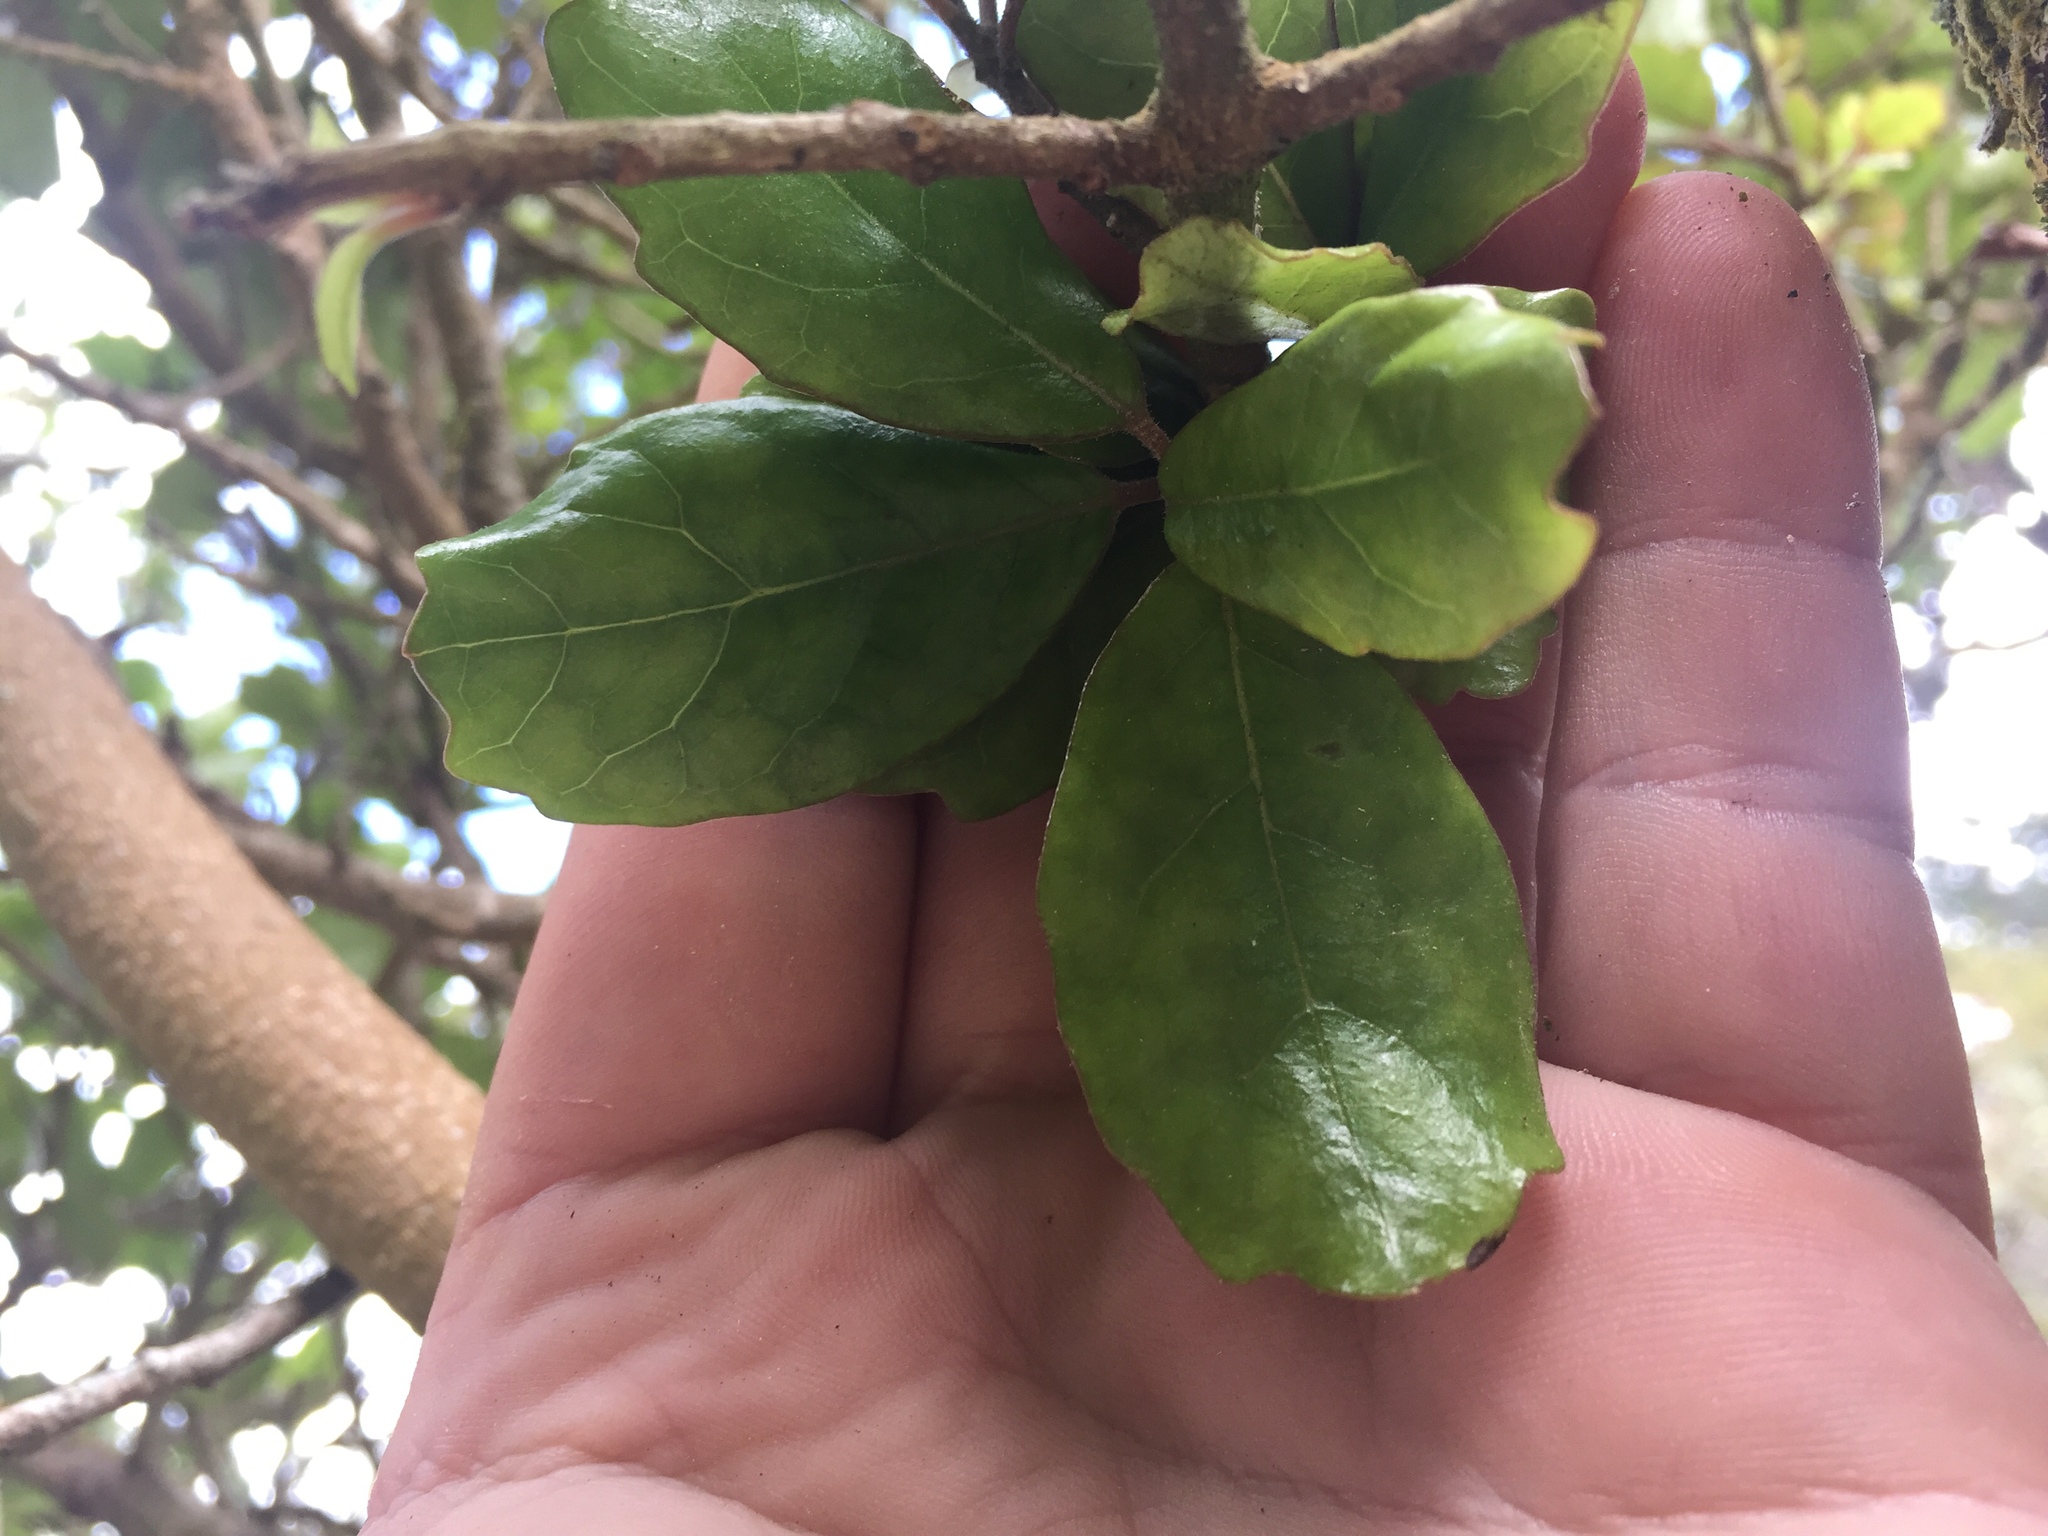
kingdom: Plantae
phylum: Tracheophyta
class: Magnoliopsida
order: Apiales
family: Pennantiaceae
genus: Pennantia
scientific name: Pennantia corymbosa
